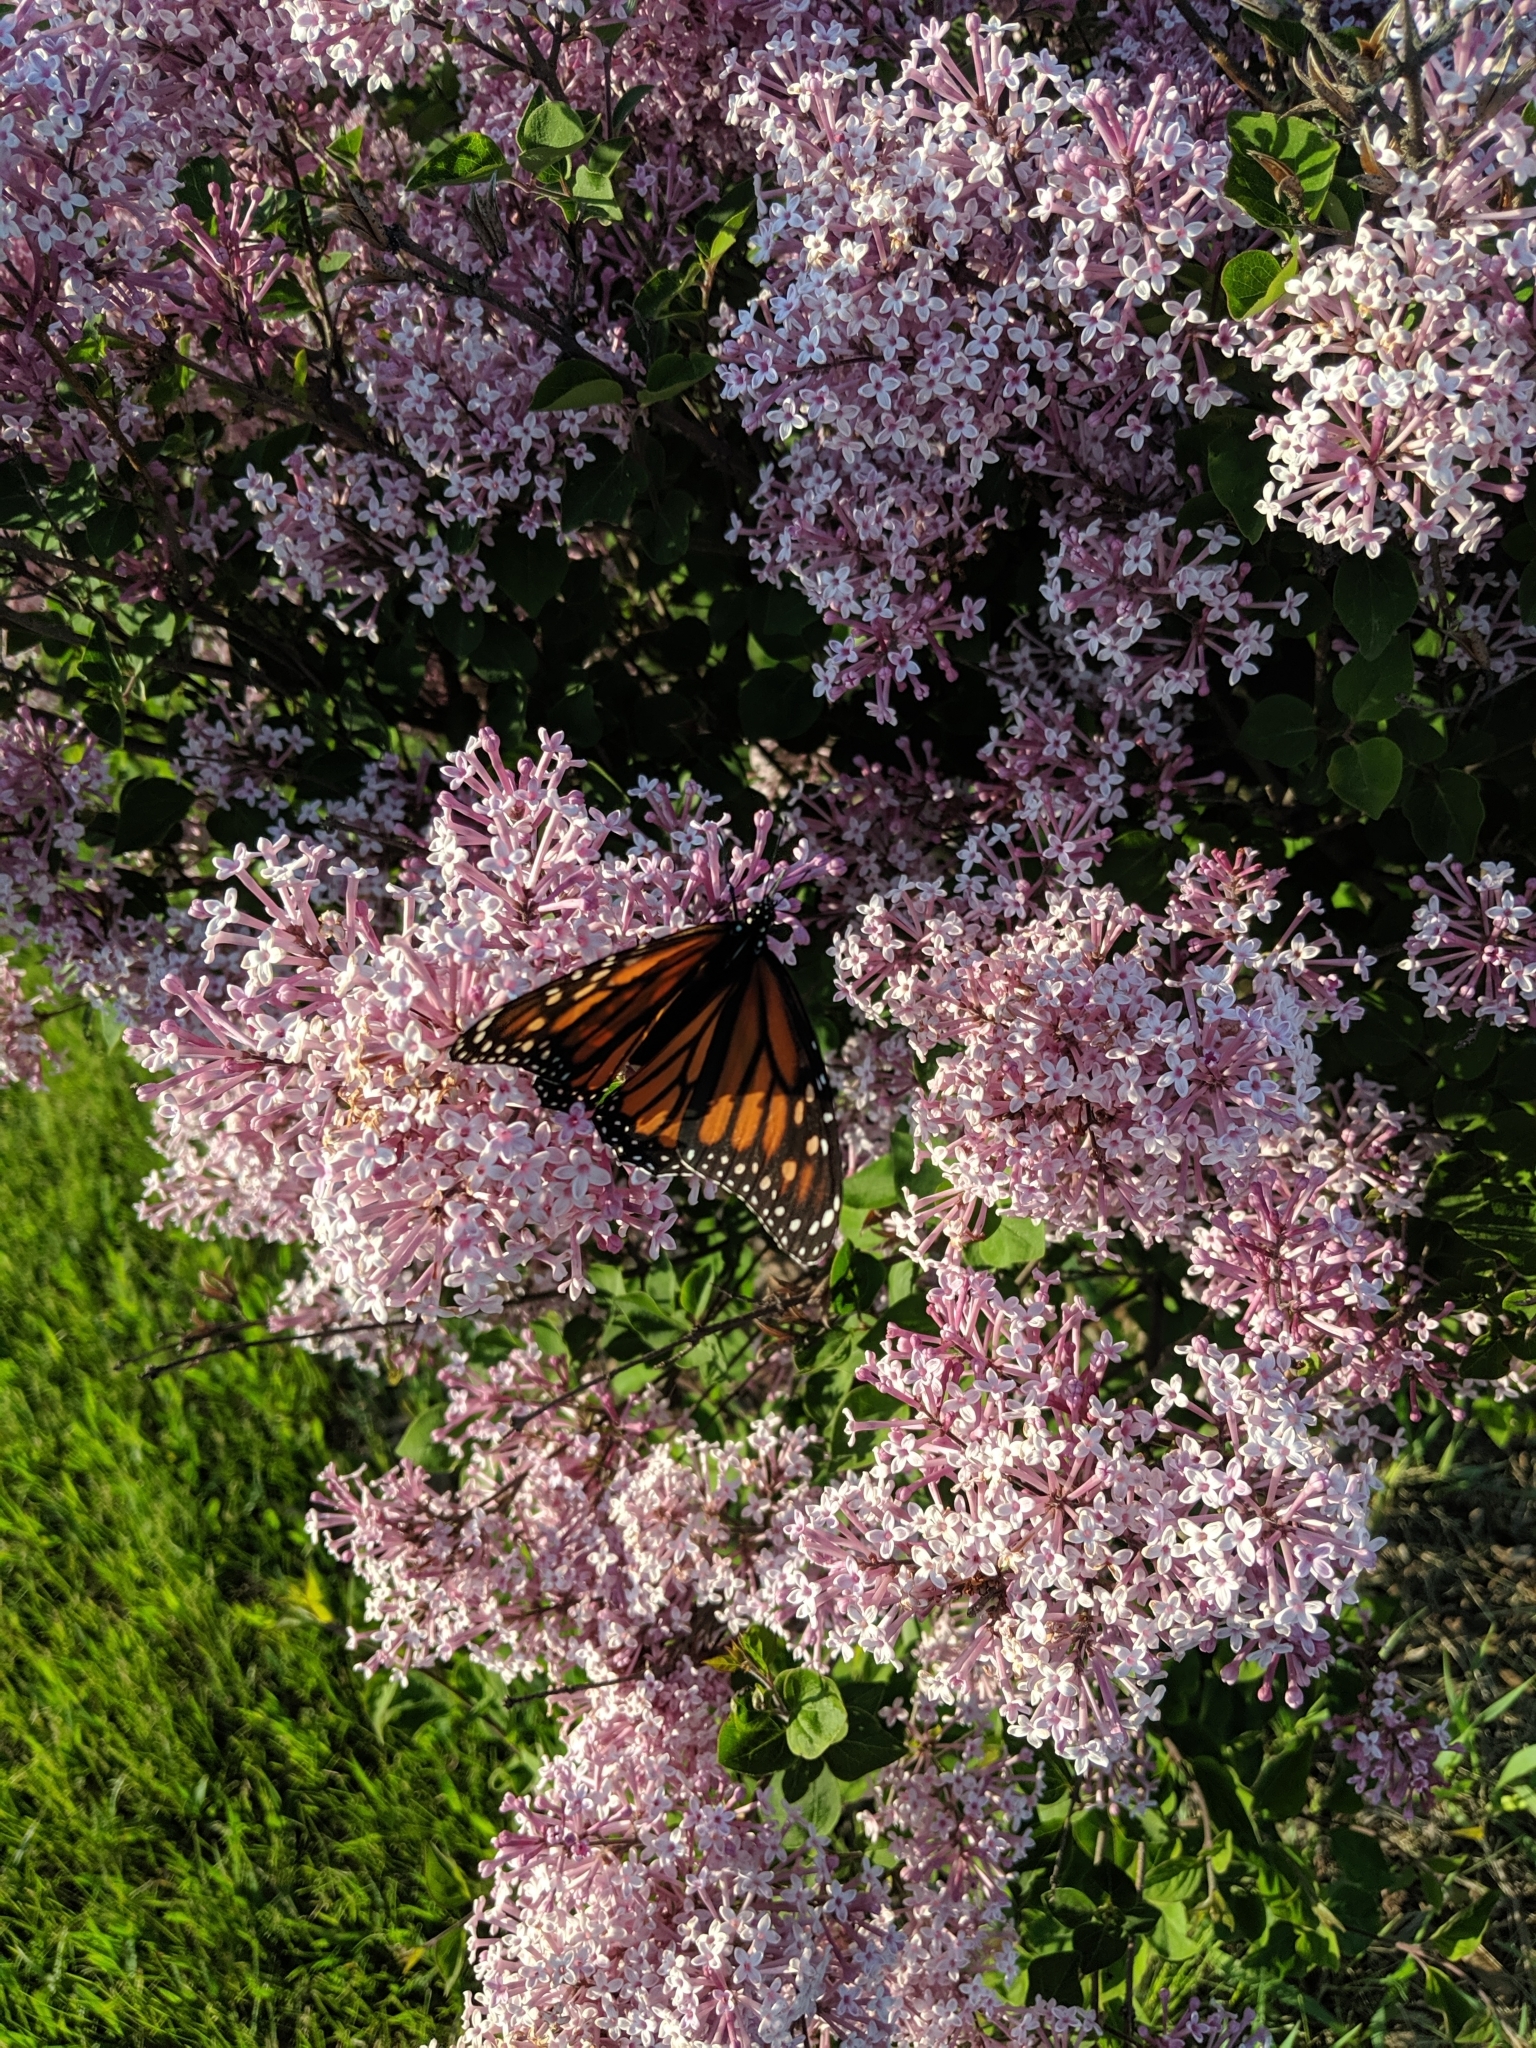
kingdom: Animalia
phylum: Arthropoda
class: Insecta
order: Lepidoptera
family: Nymphalidae
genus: Danaus
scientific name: Danaus plexippus
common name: Monarch
